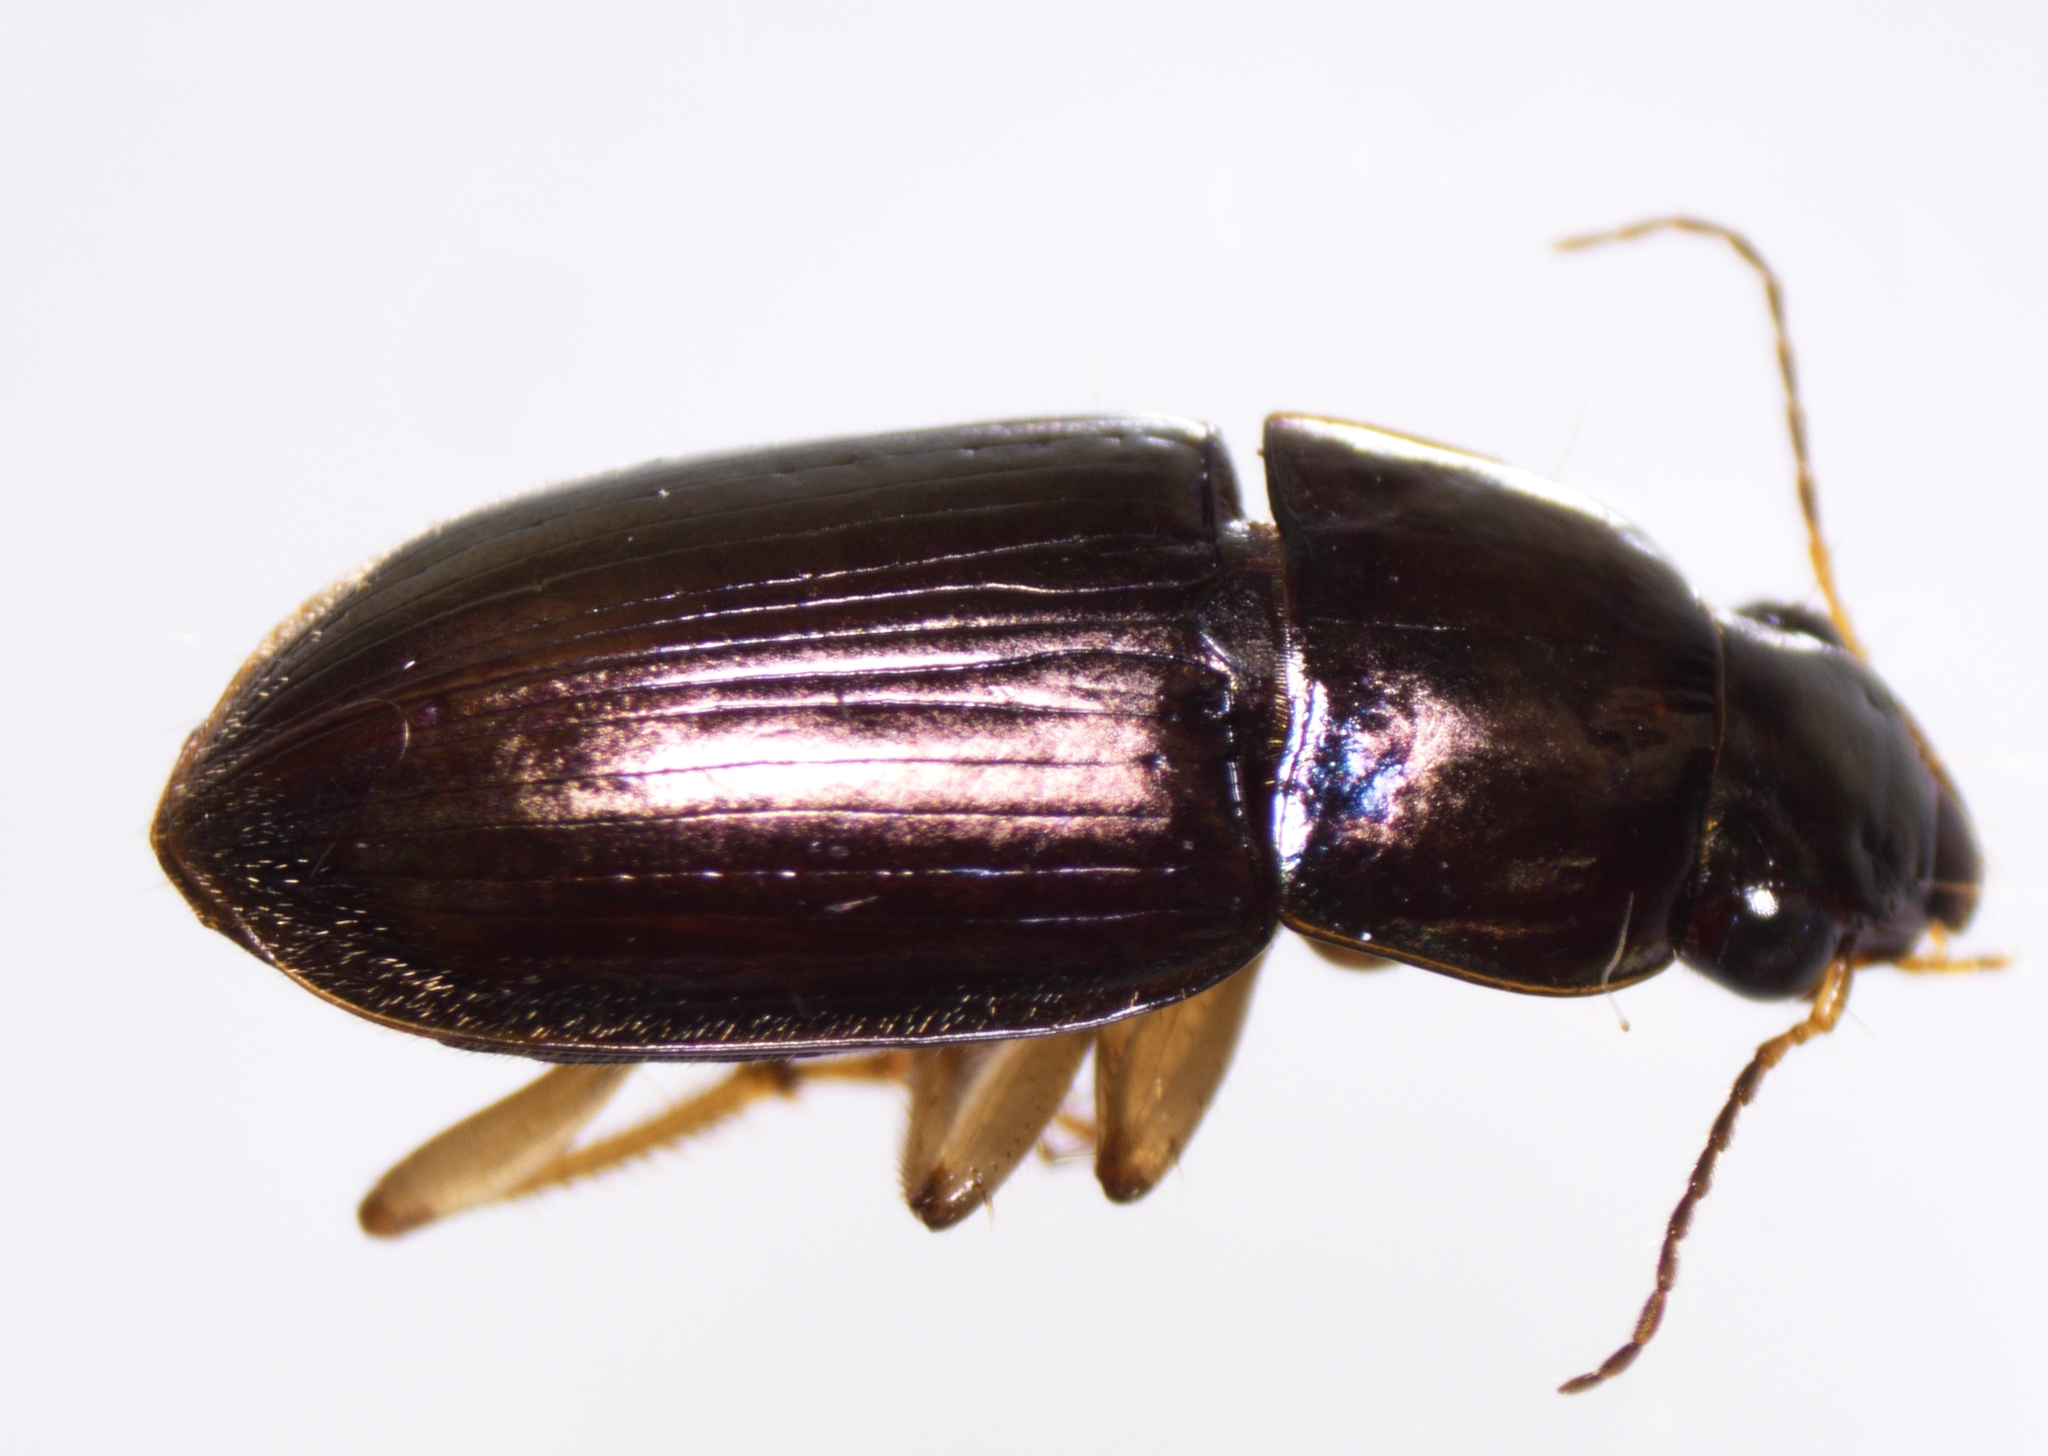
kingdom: Animalia
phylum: Arthropoda
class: Insecta
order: Coleoptera
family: Carabidae
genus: Selenophorus
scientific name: Selenophorus pyritosus
